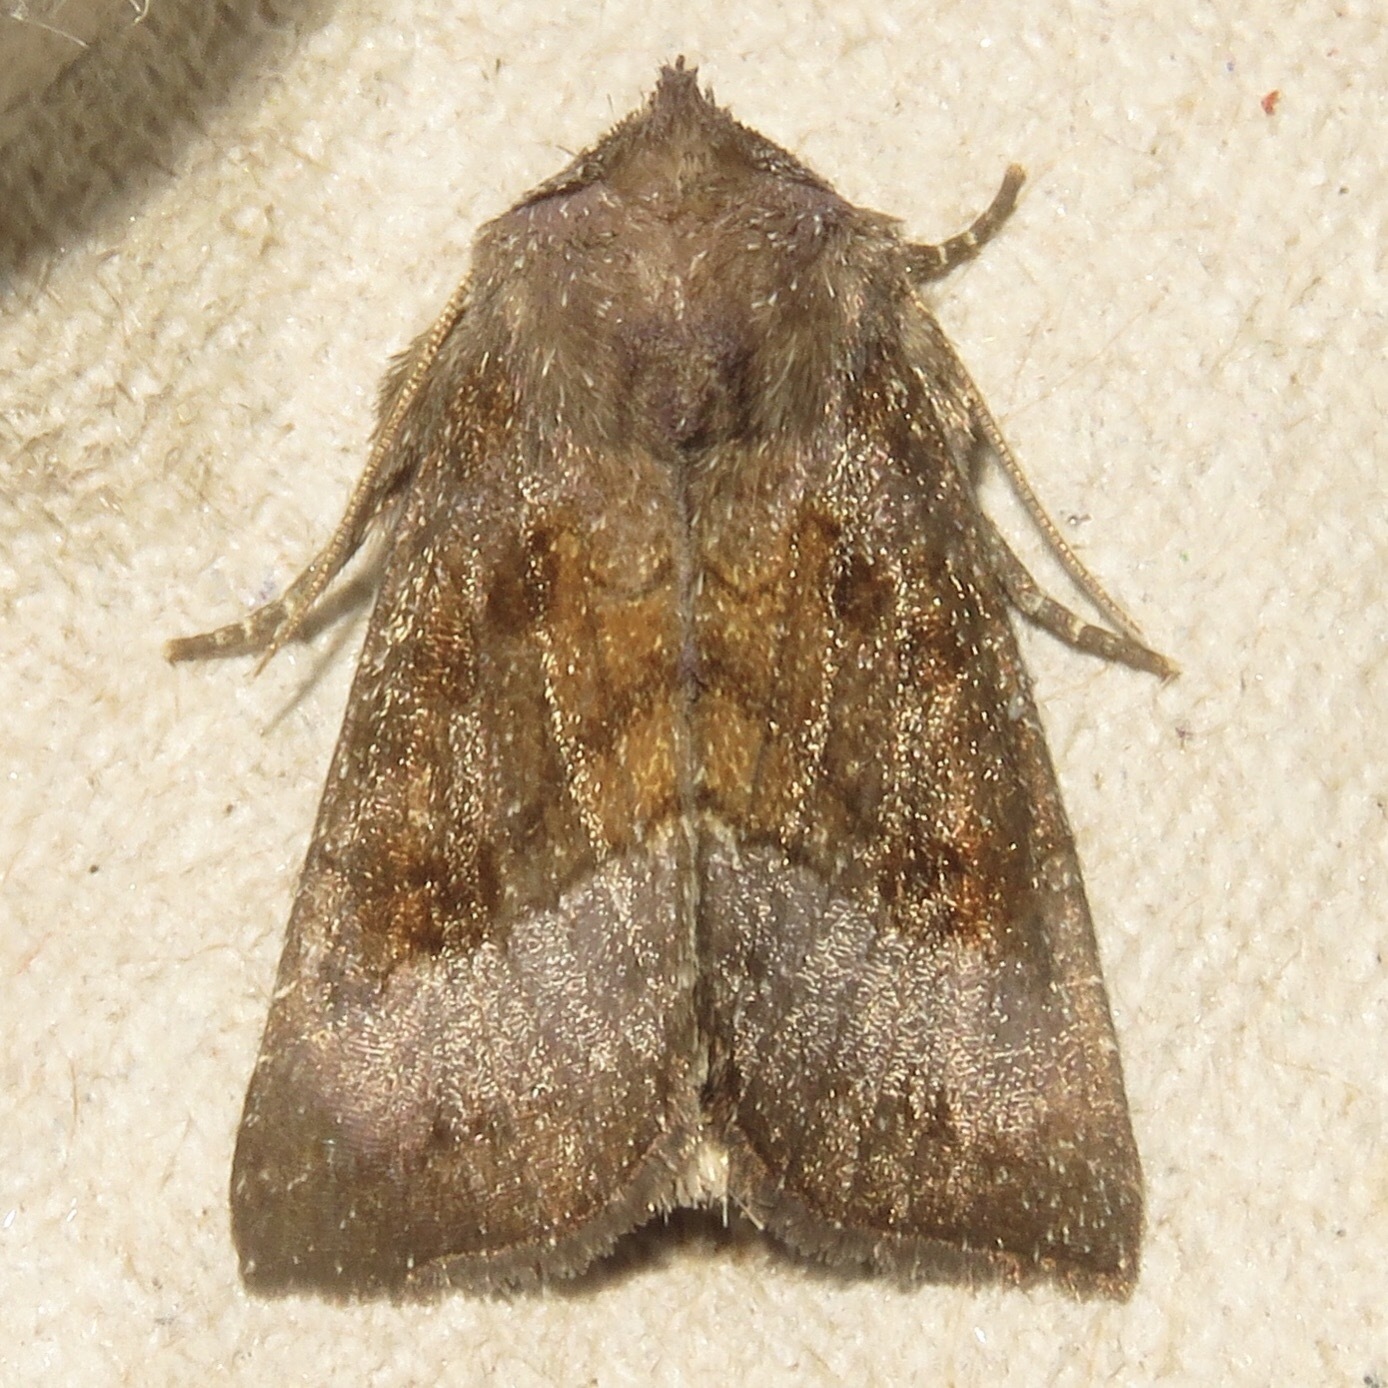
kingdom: Animalia
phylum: Arthropoda
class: Insecta
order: Lepidoptera
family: Noctuidae
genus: Nephelodes
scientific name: Nephelodes minians
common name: Bronzed cutworm
